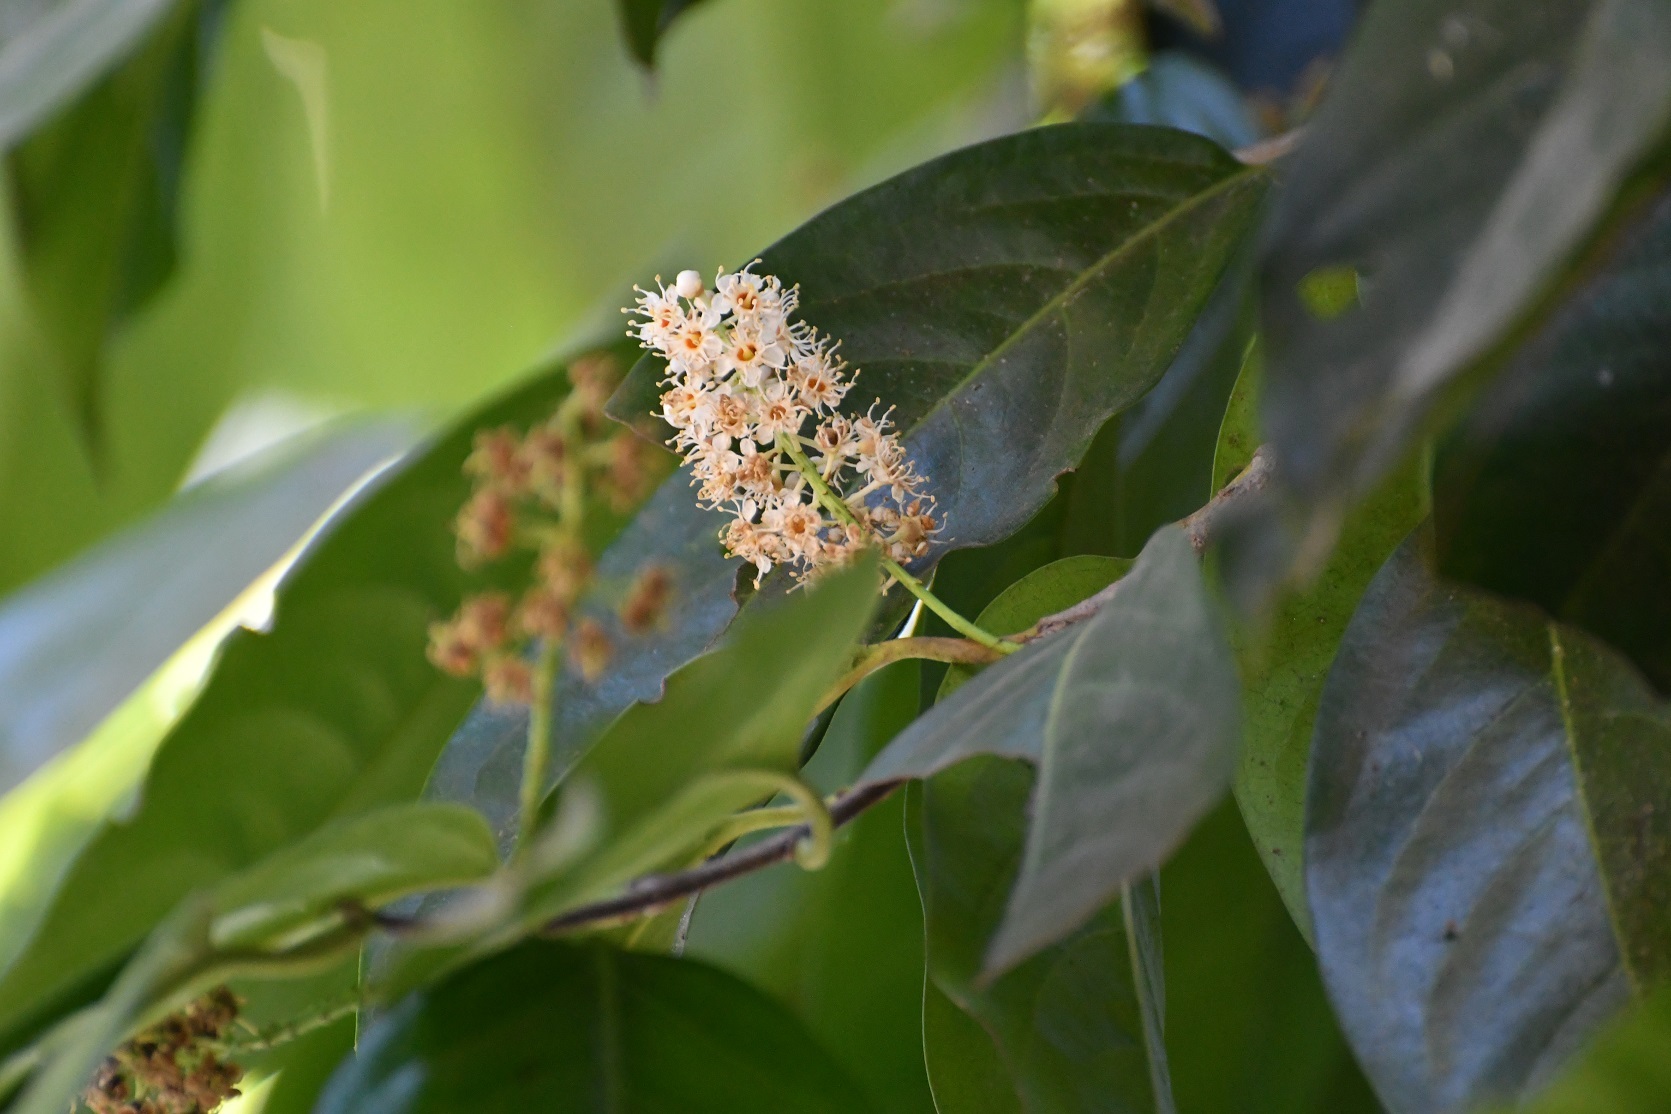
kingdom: Plantae
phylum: Tracheophyta
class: Magnoliopsida
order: Rosales
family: Rosaceae
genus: Prunus
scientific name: Prunus tetradenia
